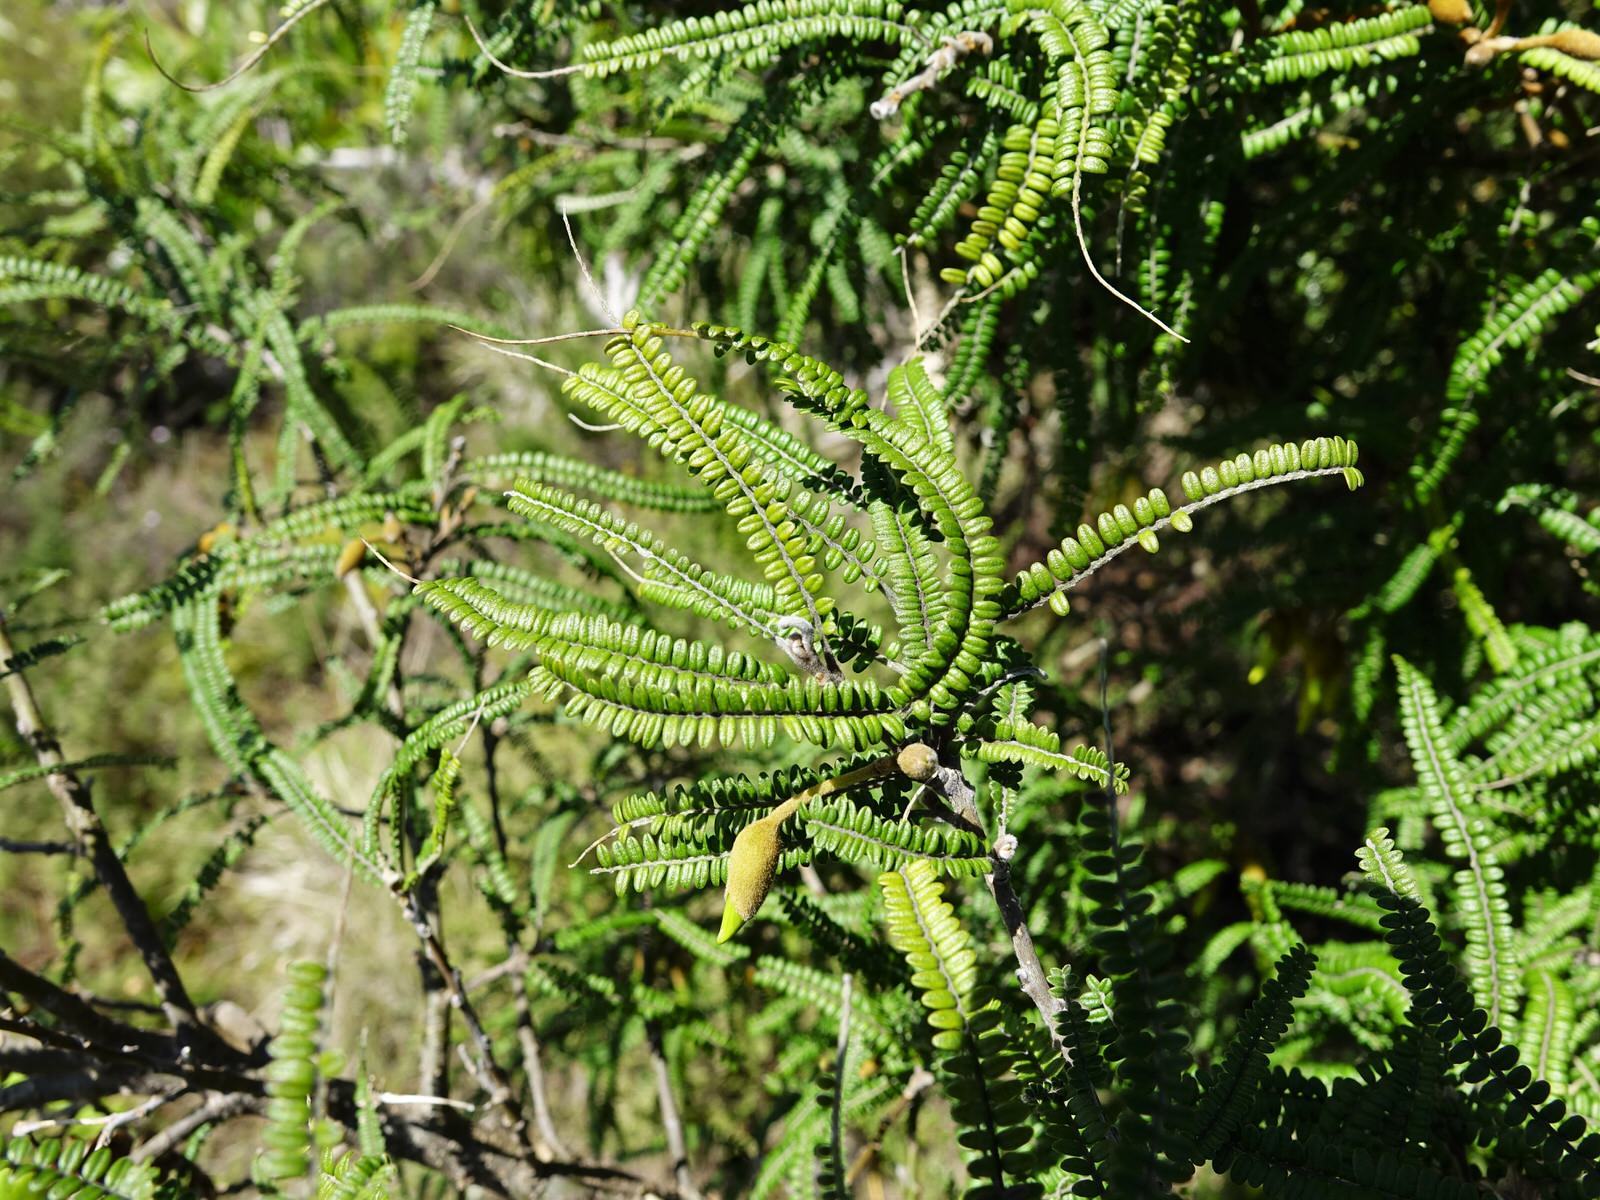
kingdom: Plantae
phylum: Tracheophyta
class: Magnoliopsida
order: Fabales
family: Fabaceae
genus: Sophora
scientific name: Sophora fulvida
